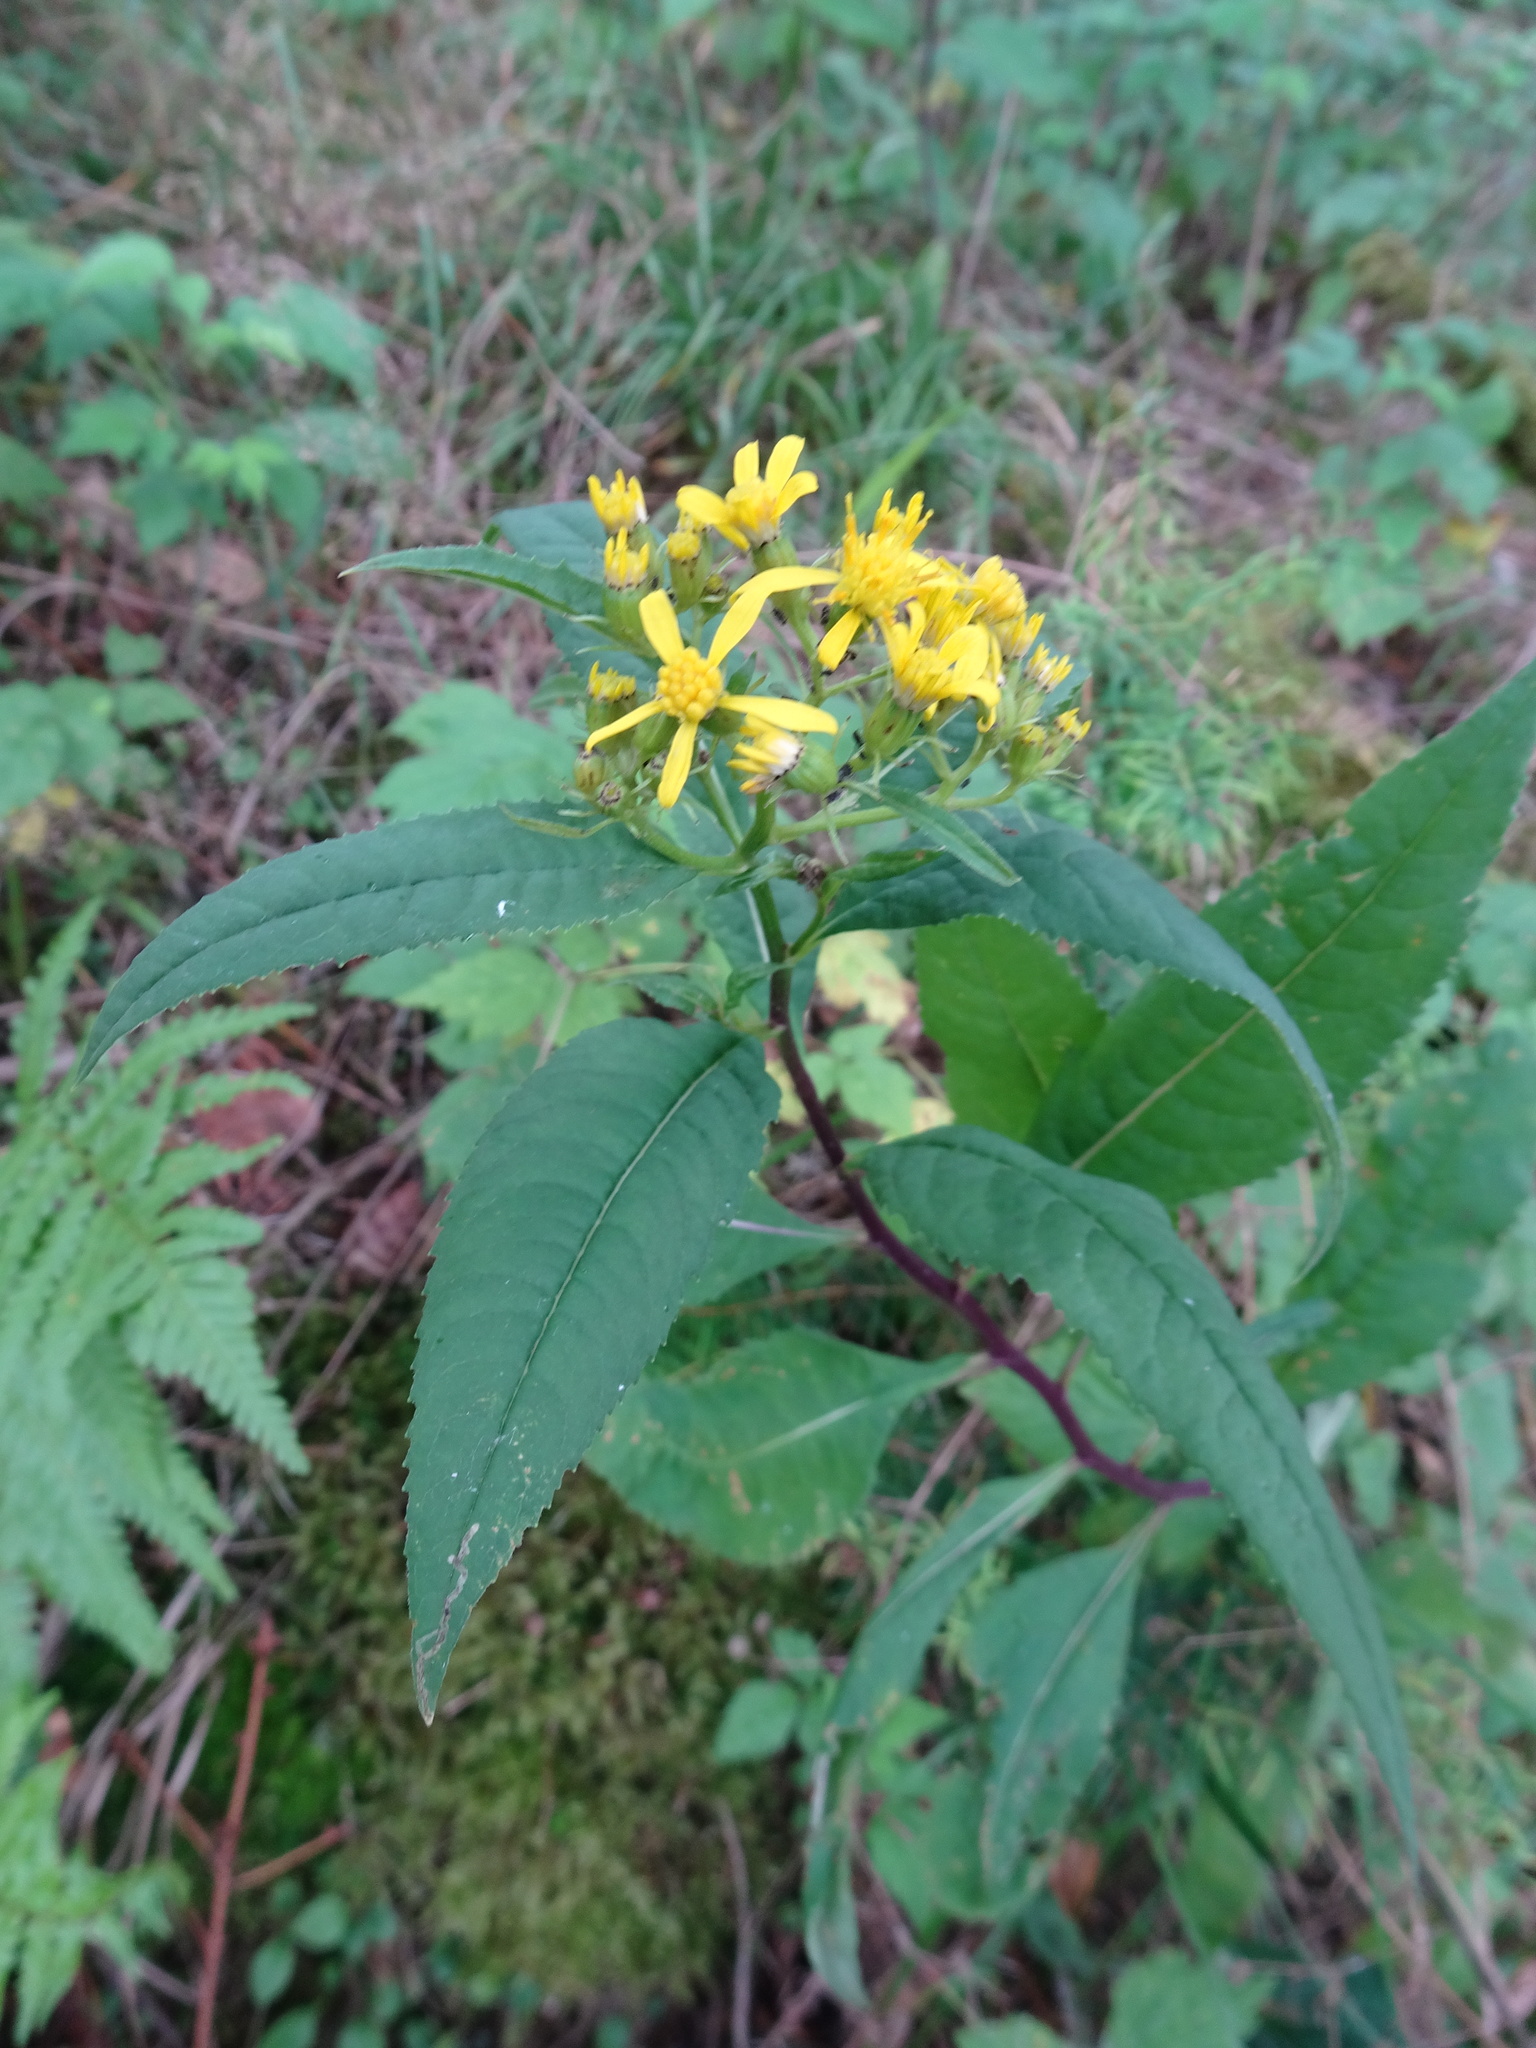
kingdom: Plantae
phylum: Tracheophyta
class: Magnoliopsida
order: Asterales
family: Asteraceae
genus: Senecio
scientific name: Senecio ovatus
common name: Wood ragwort
